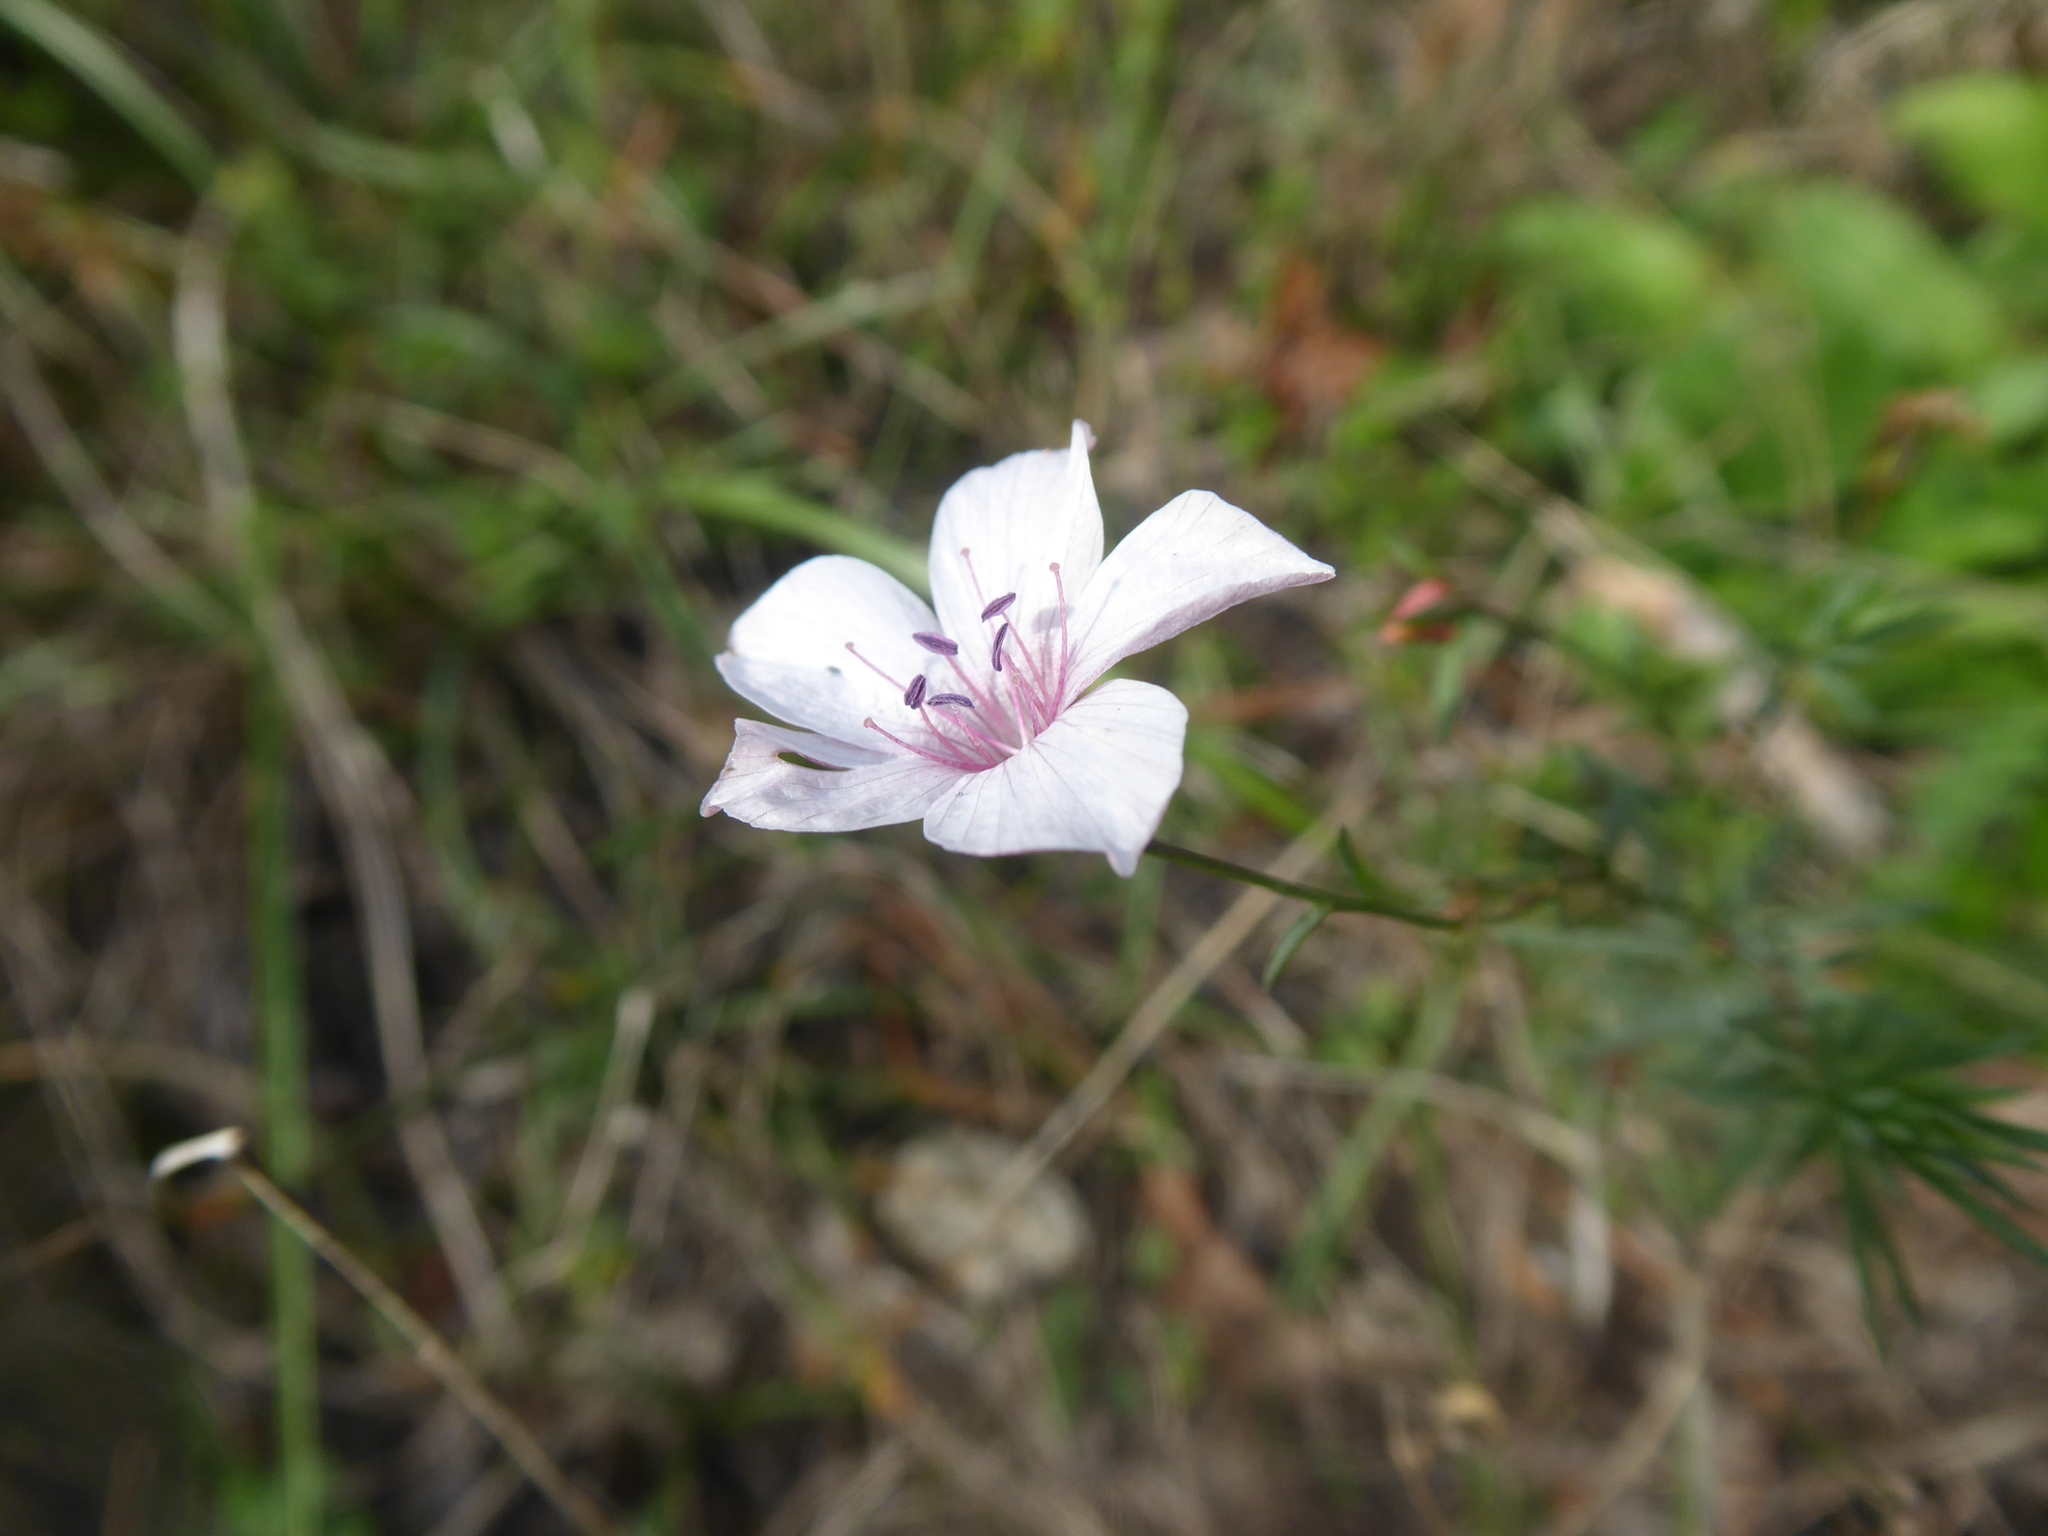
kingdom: Plantae
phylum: Tracheophyta
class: Magnoliopsida
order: Malpighiales
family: Linaceae
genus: Linum
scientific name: Linum tenuifolium
